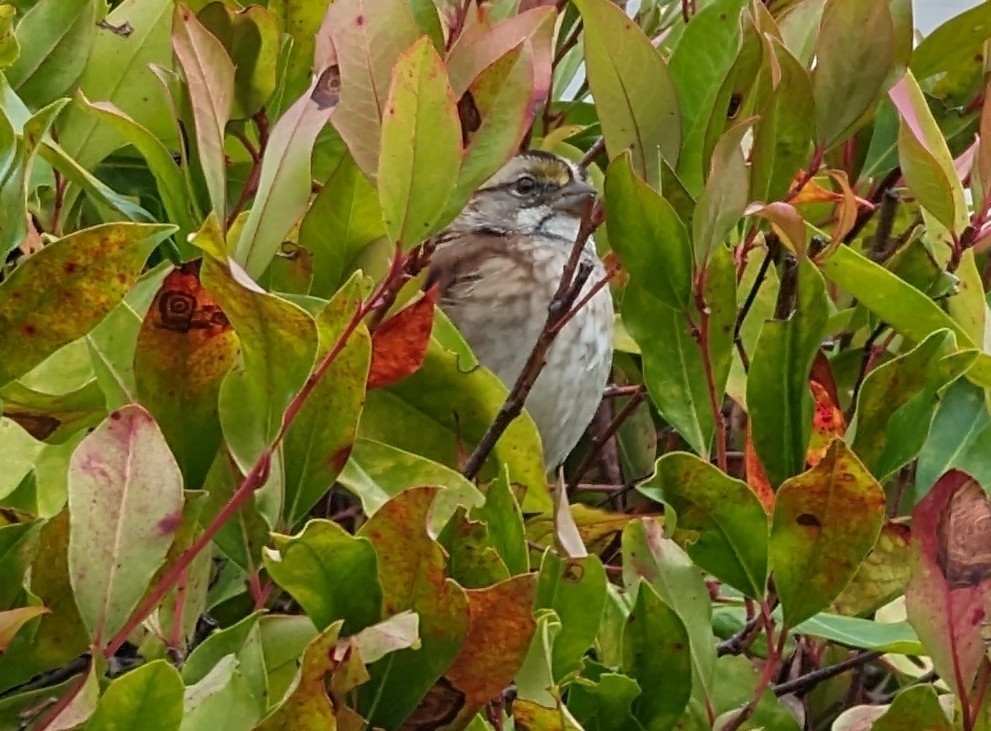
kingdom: Animalia
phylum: Chordata
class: Aves
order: Passeriformes
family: Passerellidae
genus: Zonotrichia
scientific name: Zonotrichia albicollis
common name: White-throated sparrow
